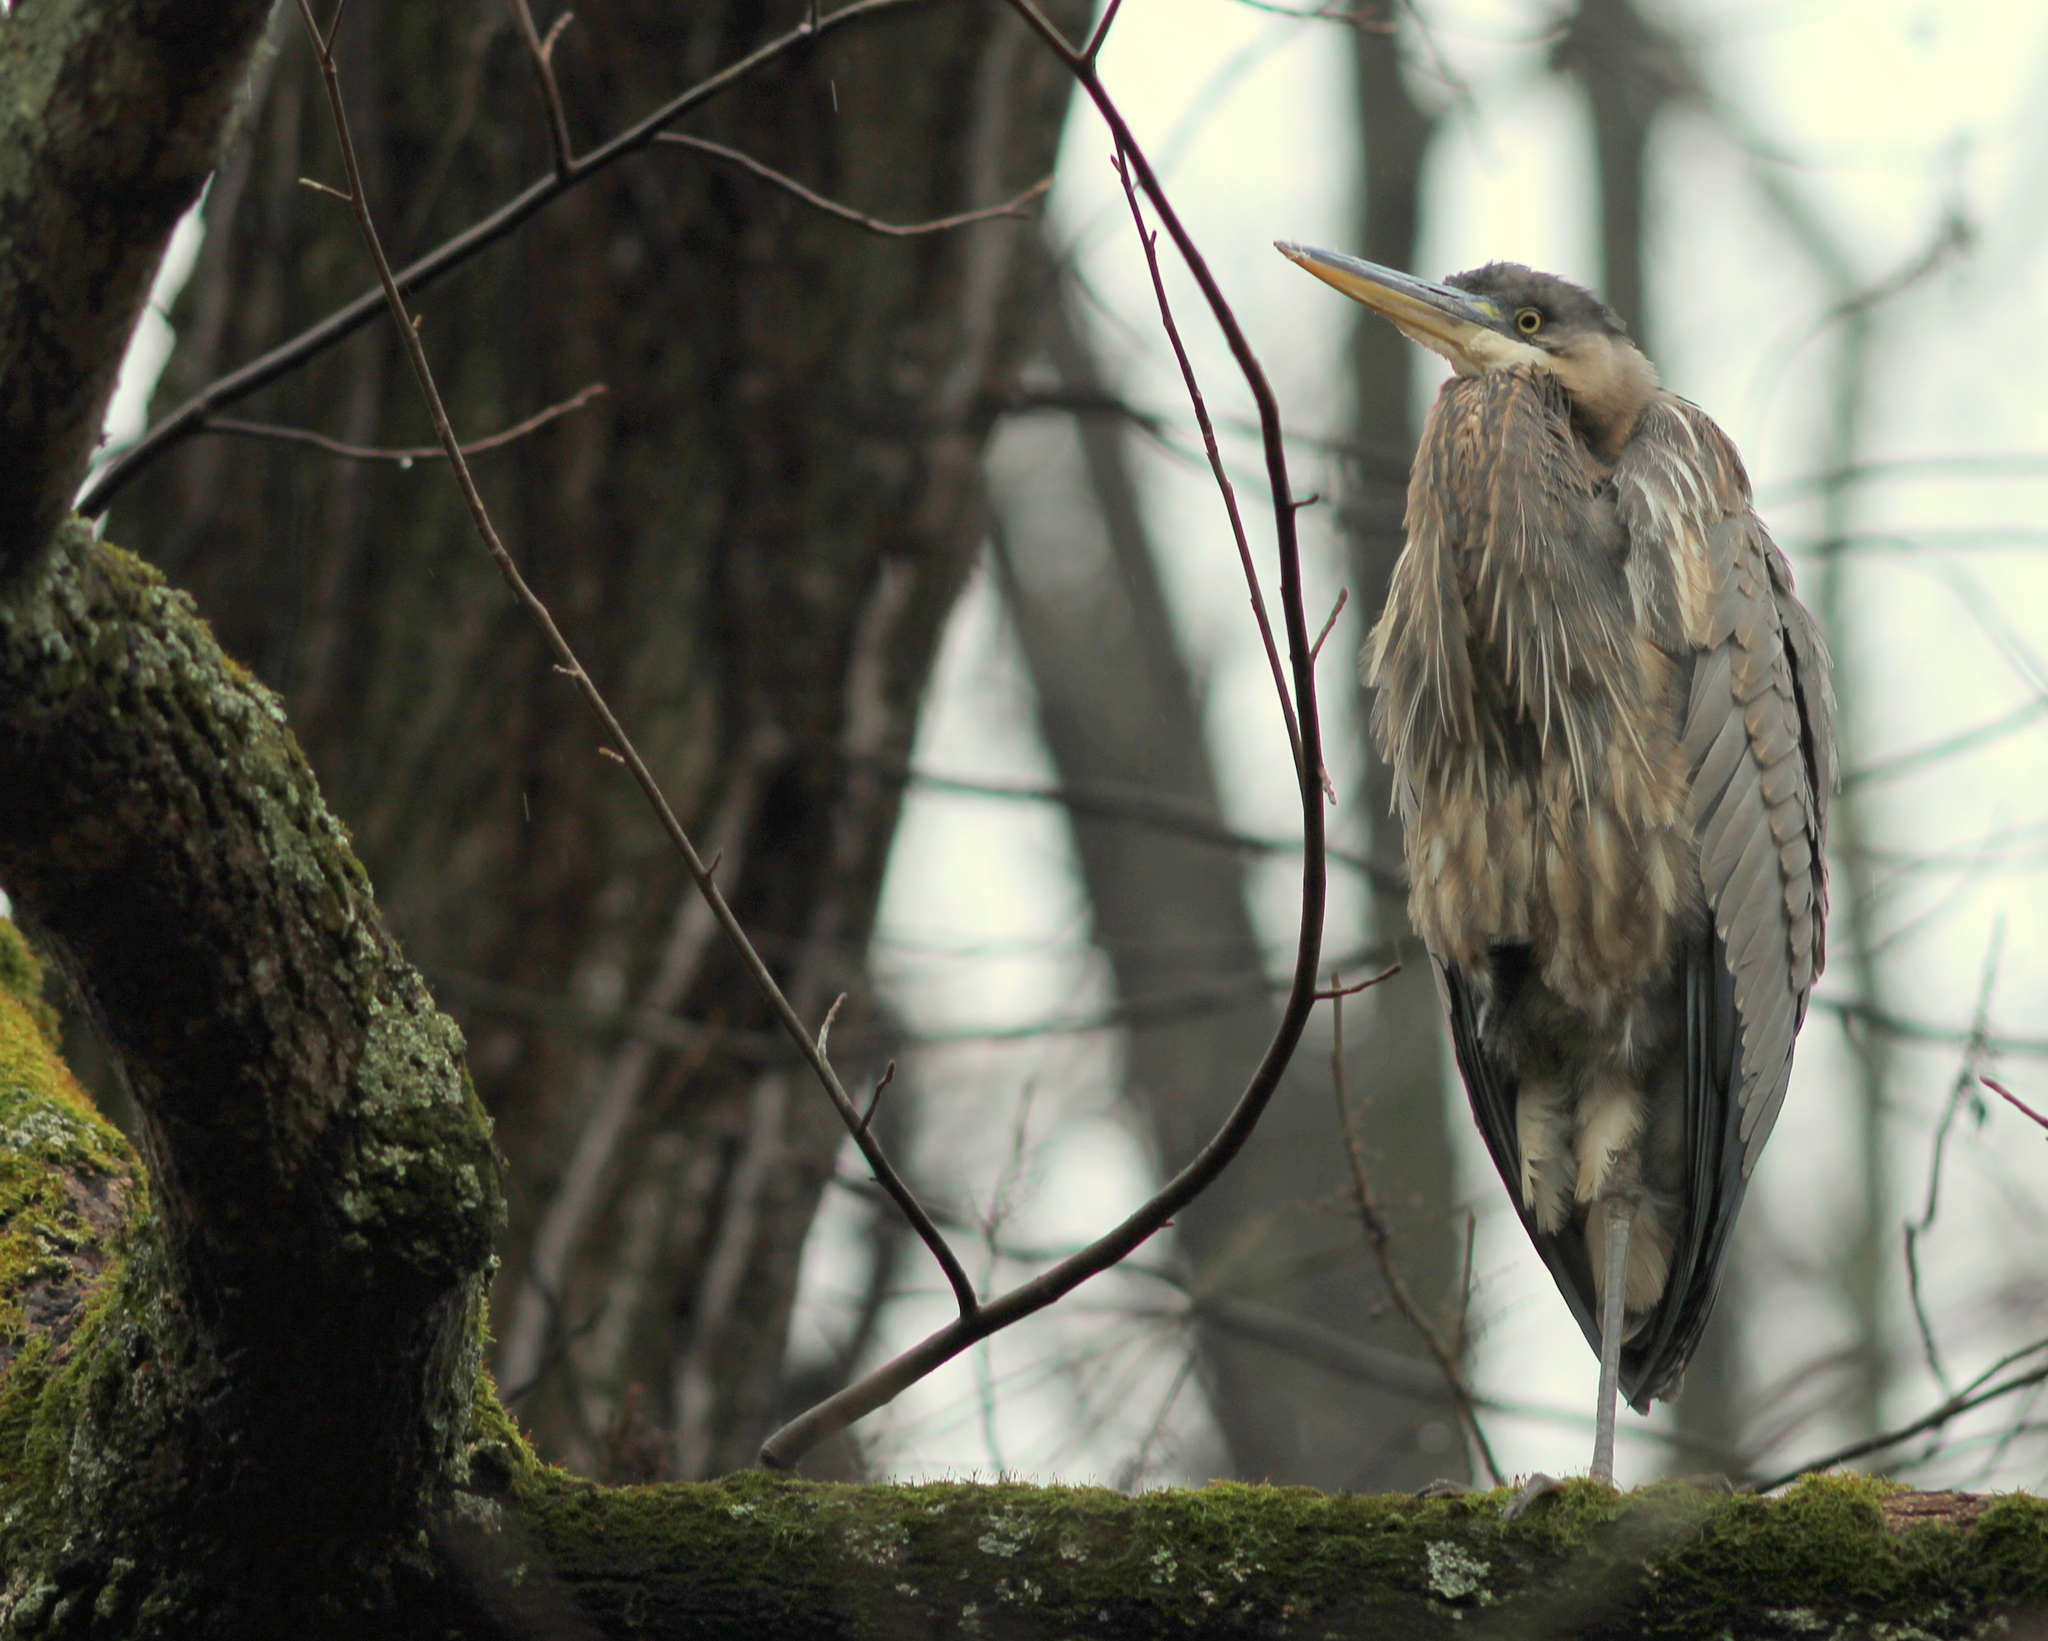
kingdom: Animalia
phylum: Chordata
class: Aves
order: Pelecaniformes
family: Ardeidae
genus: Ardea
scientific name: Ardea herodias
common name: Great blue heron
